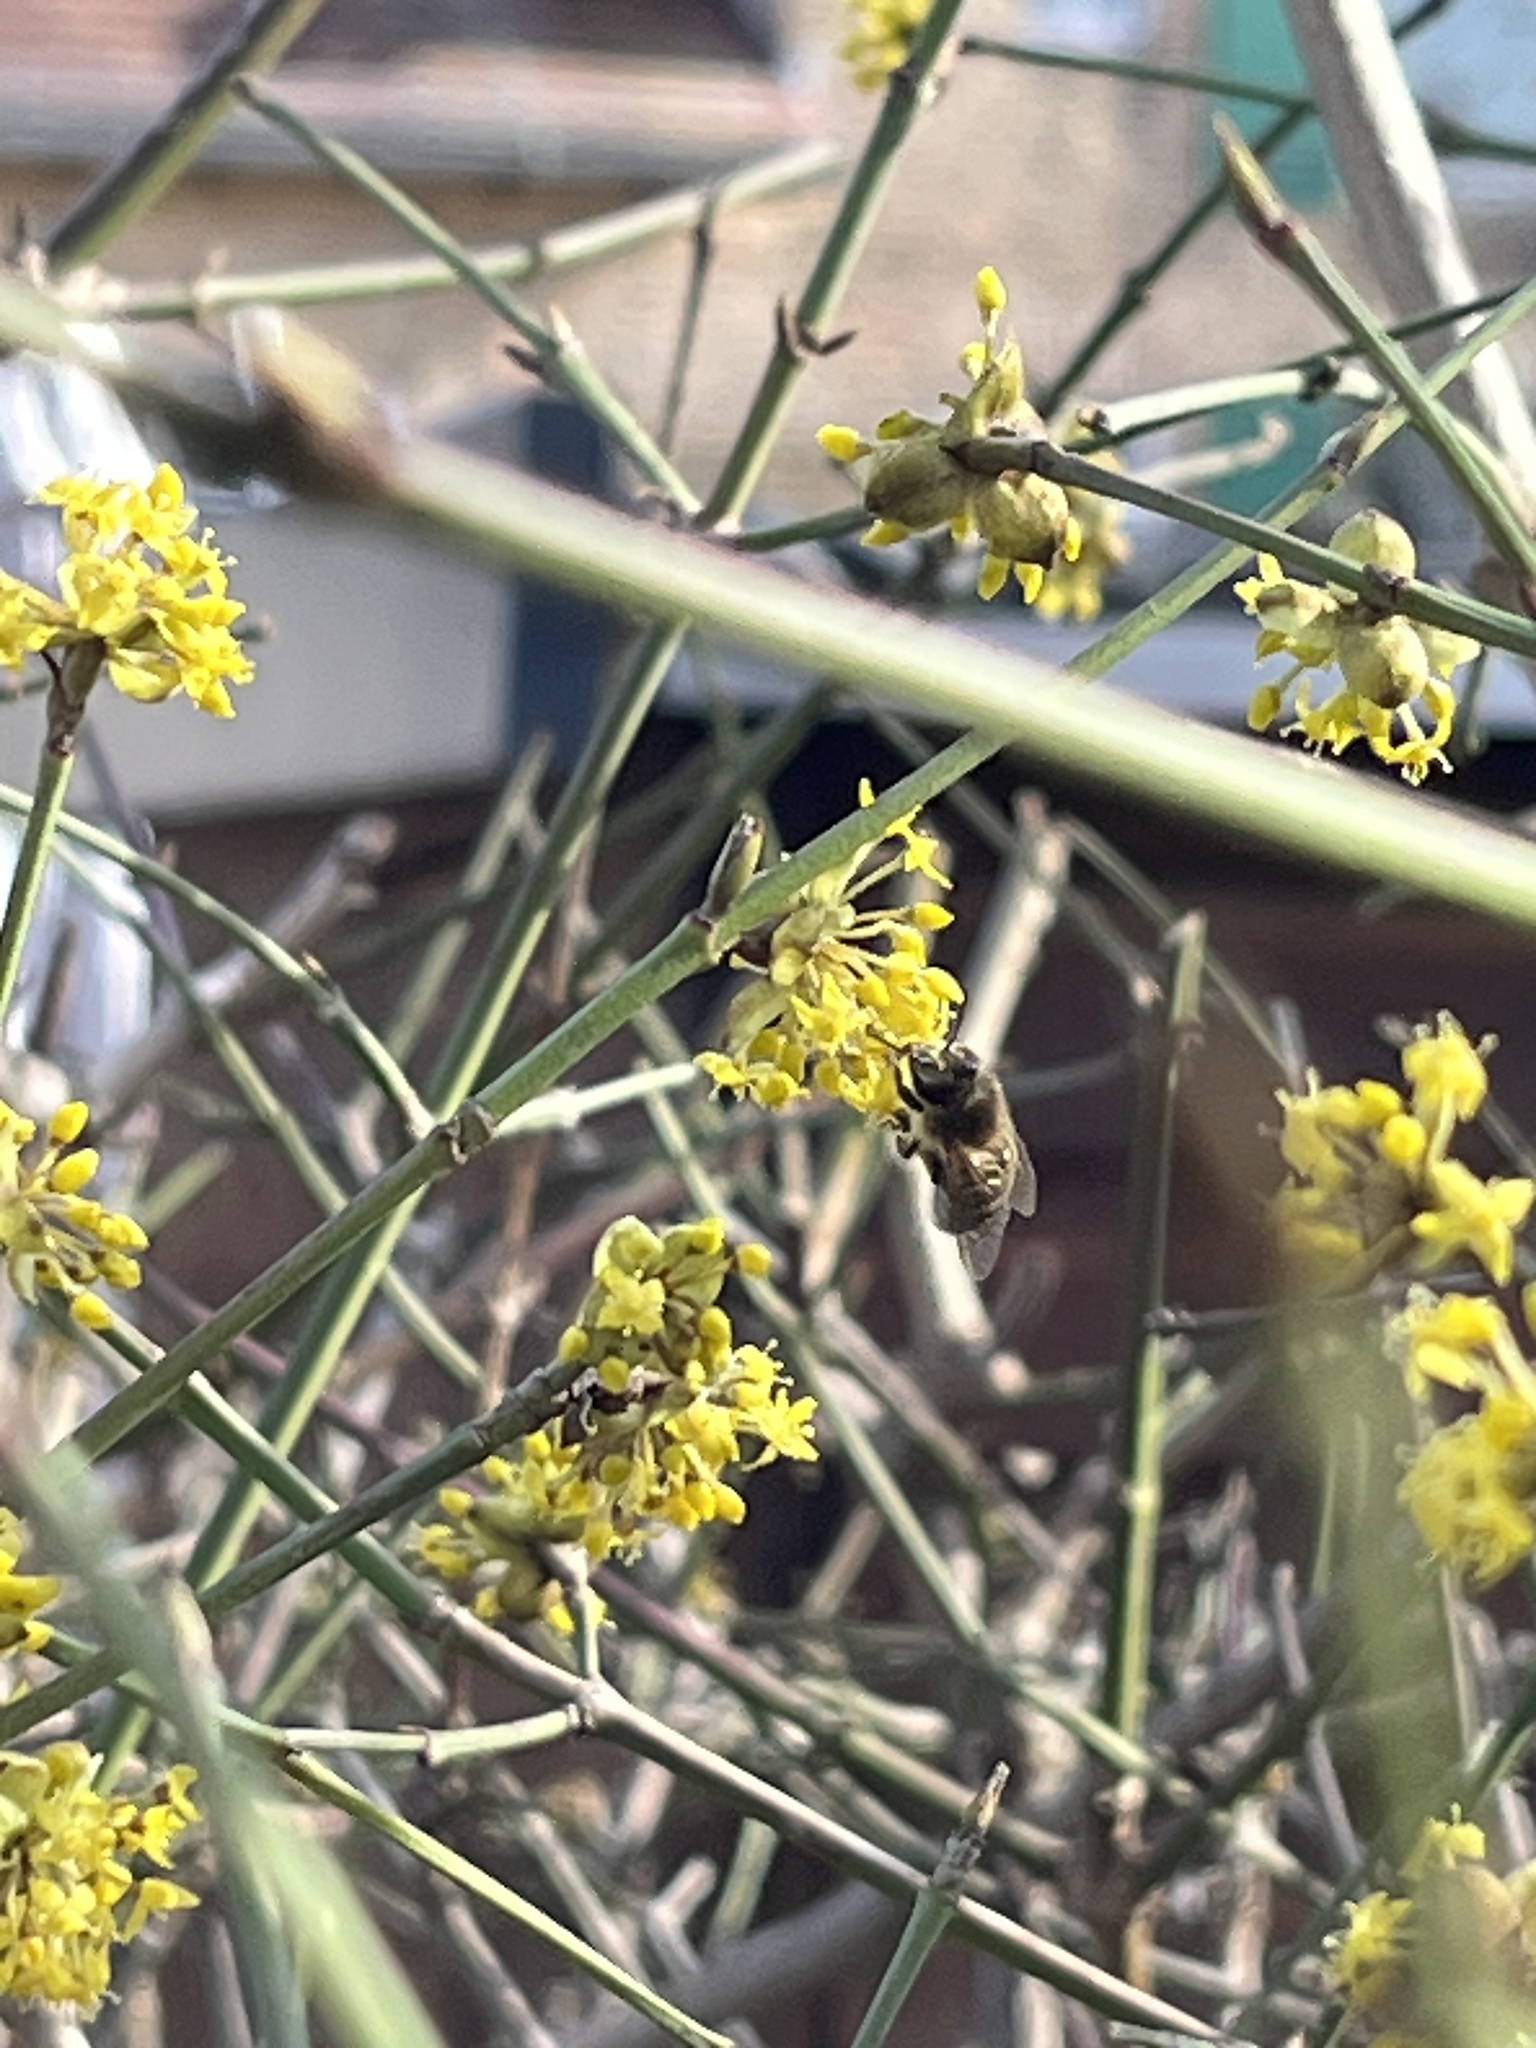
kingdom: Animalia
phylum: Arthropoda
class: Insecta
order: Hymenoptera
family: Apidae
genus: Apis
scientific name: Apis mellifera
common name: Honey bee
